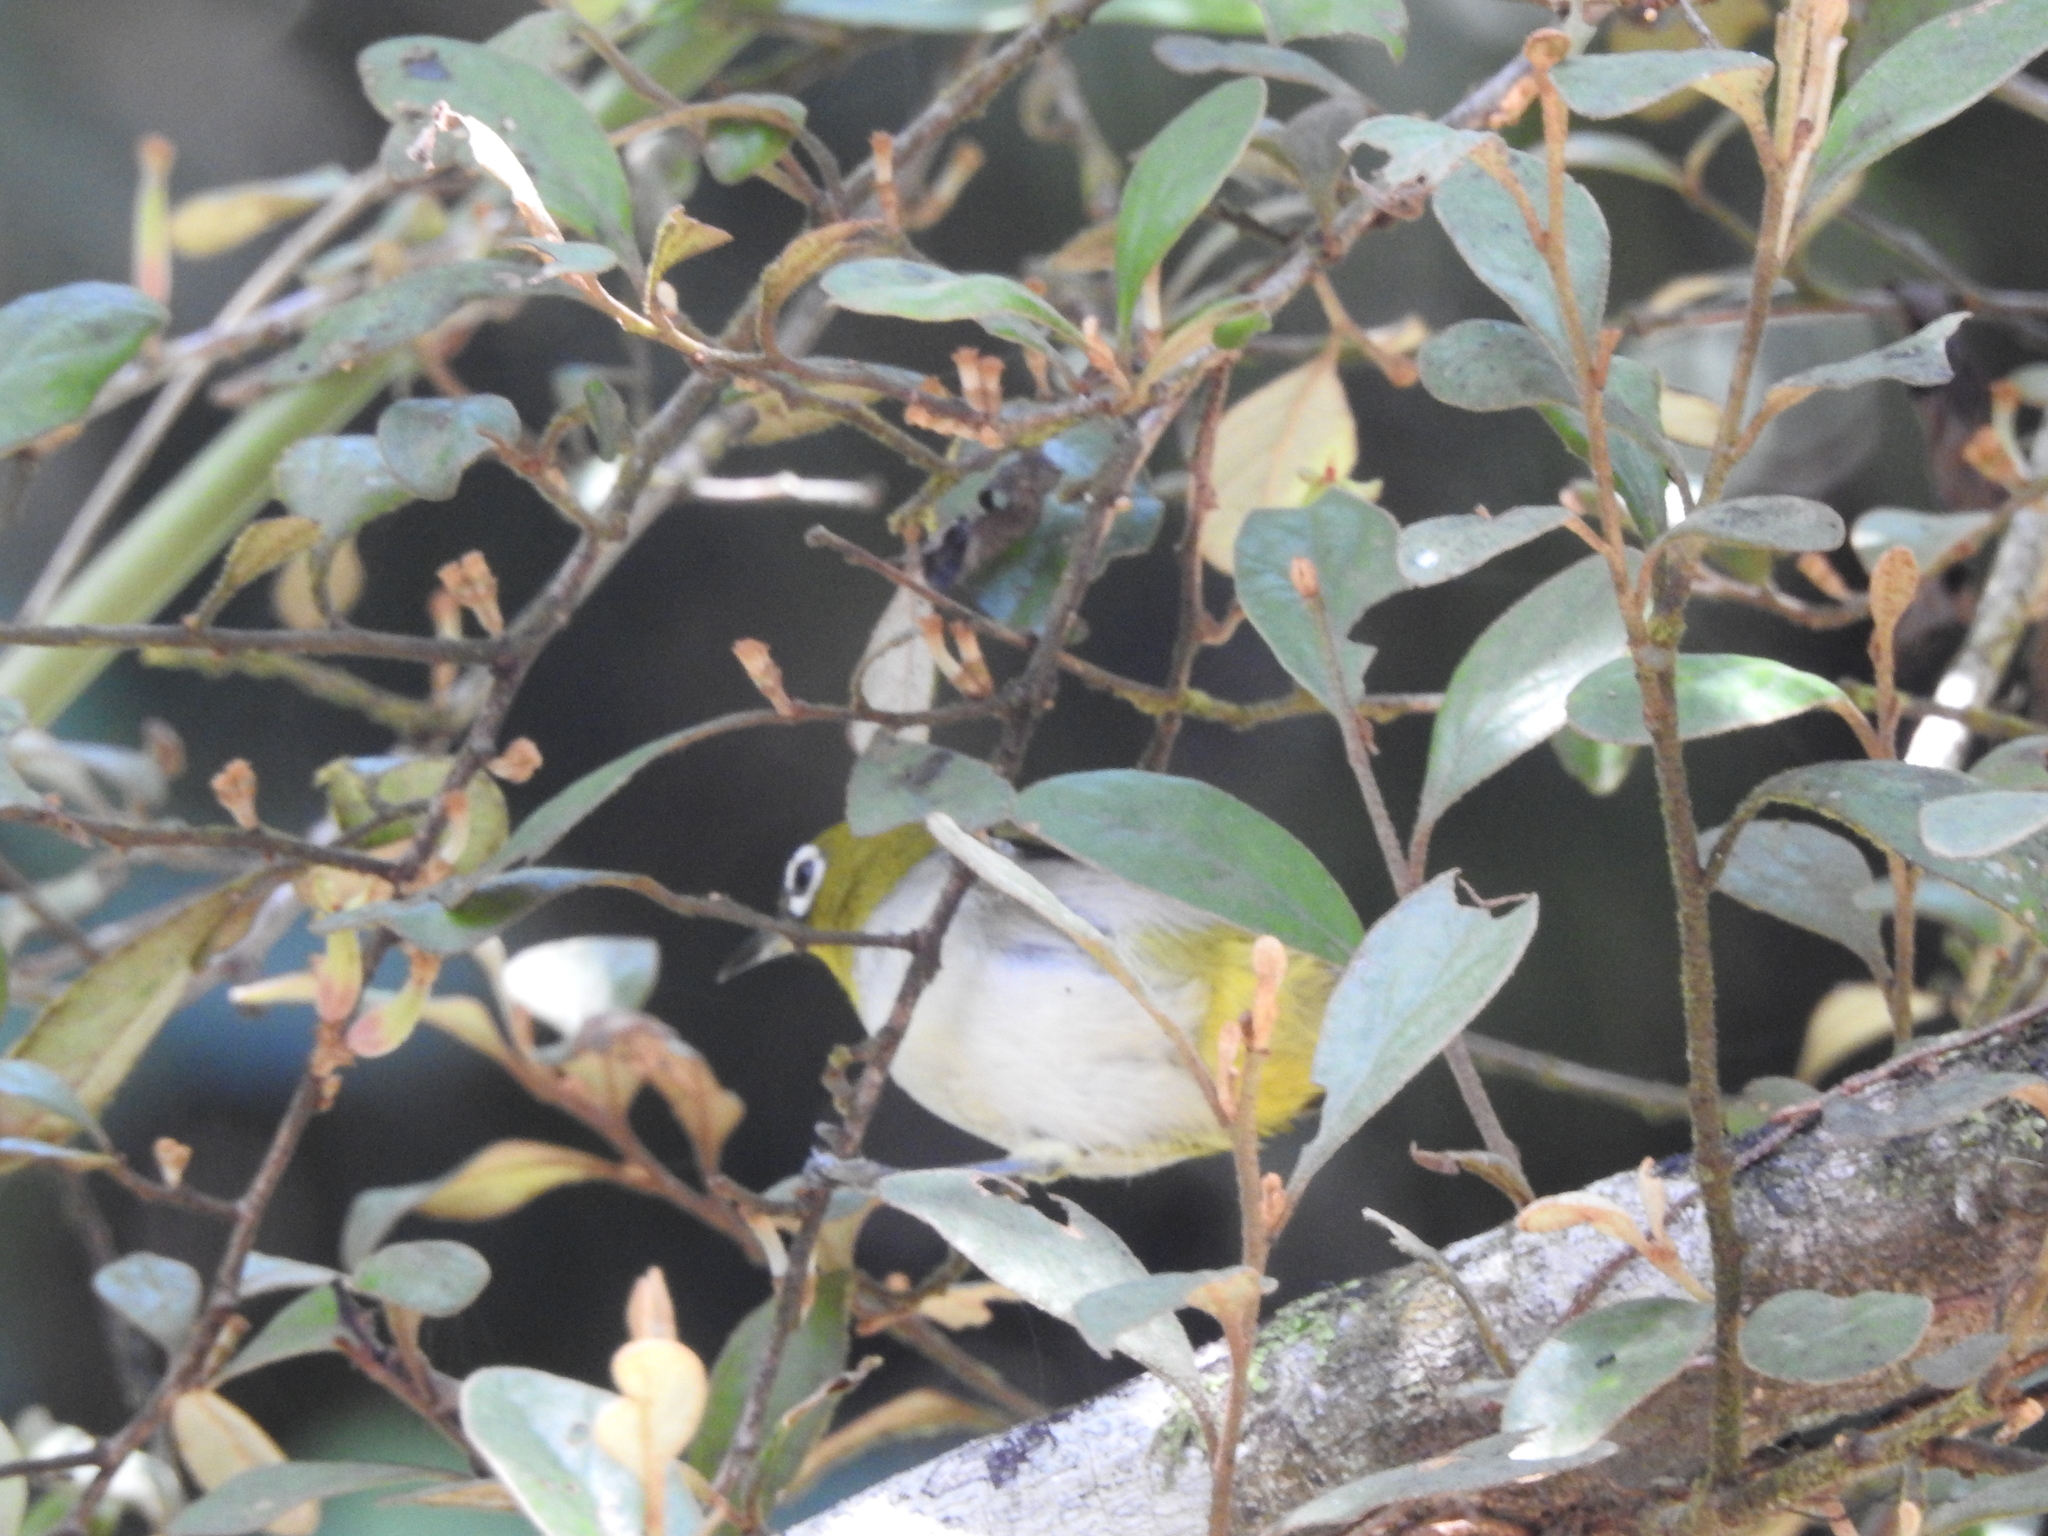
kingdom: Animalia
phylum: Chordata
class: Aves
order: Passeriformes
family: Zosteropidae
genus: Zosterops
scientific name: Zosterops palpebrosus
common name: Oriental white-eye
